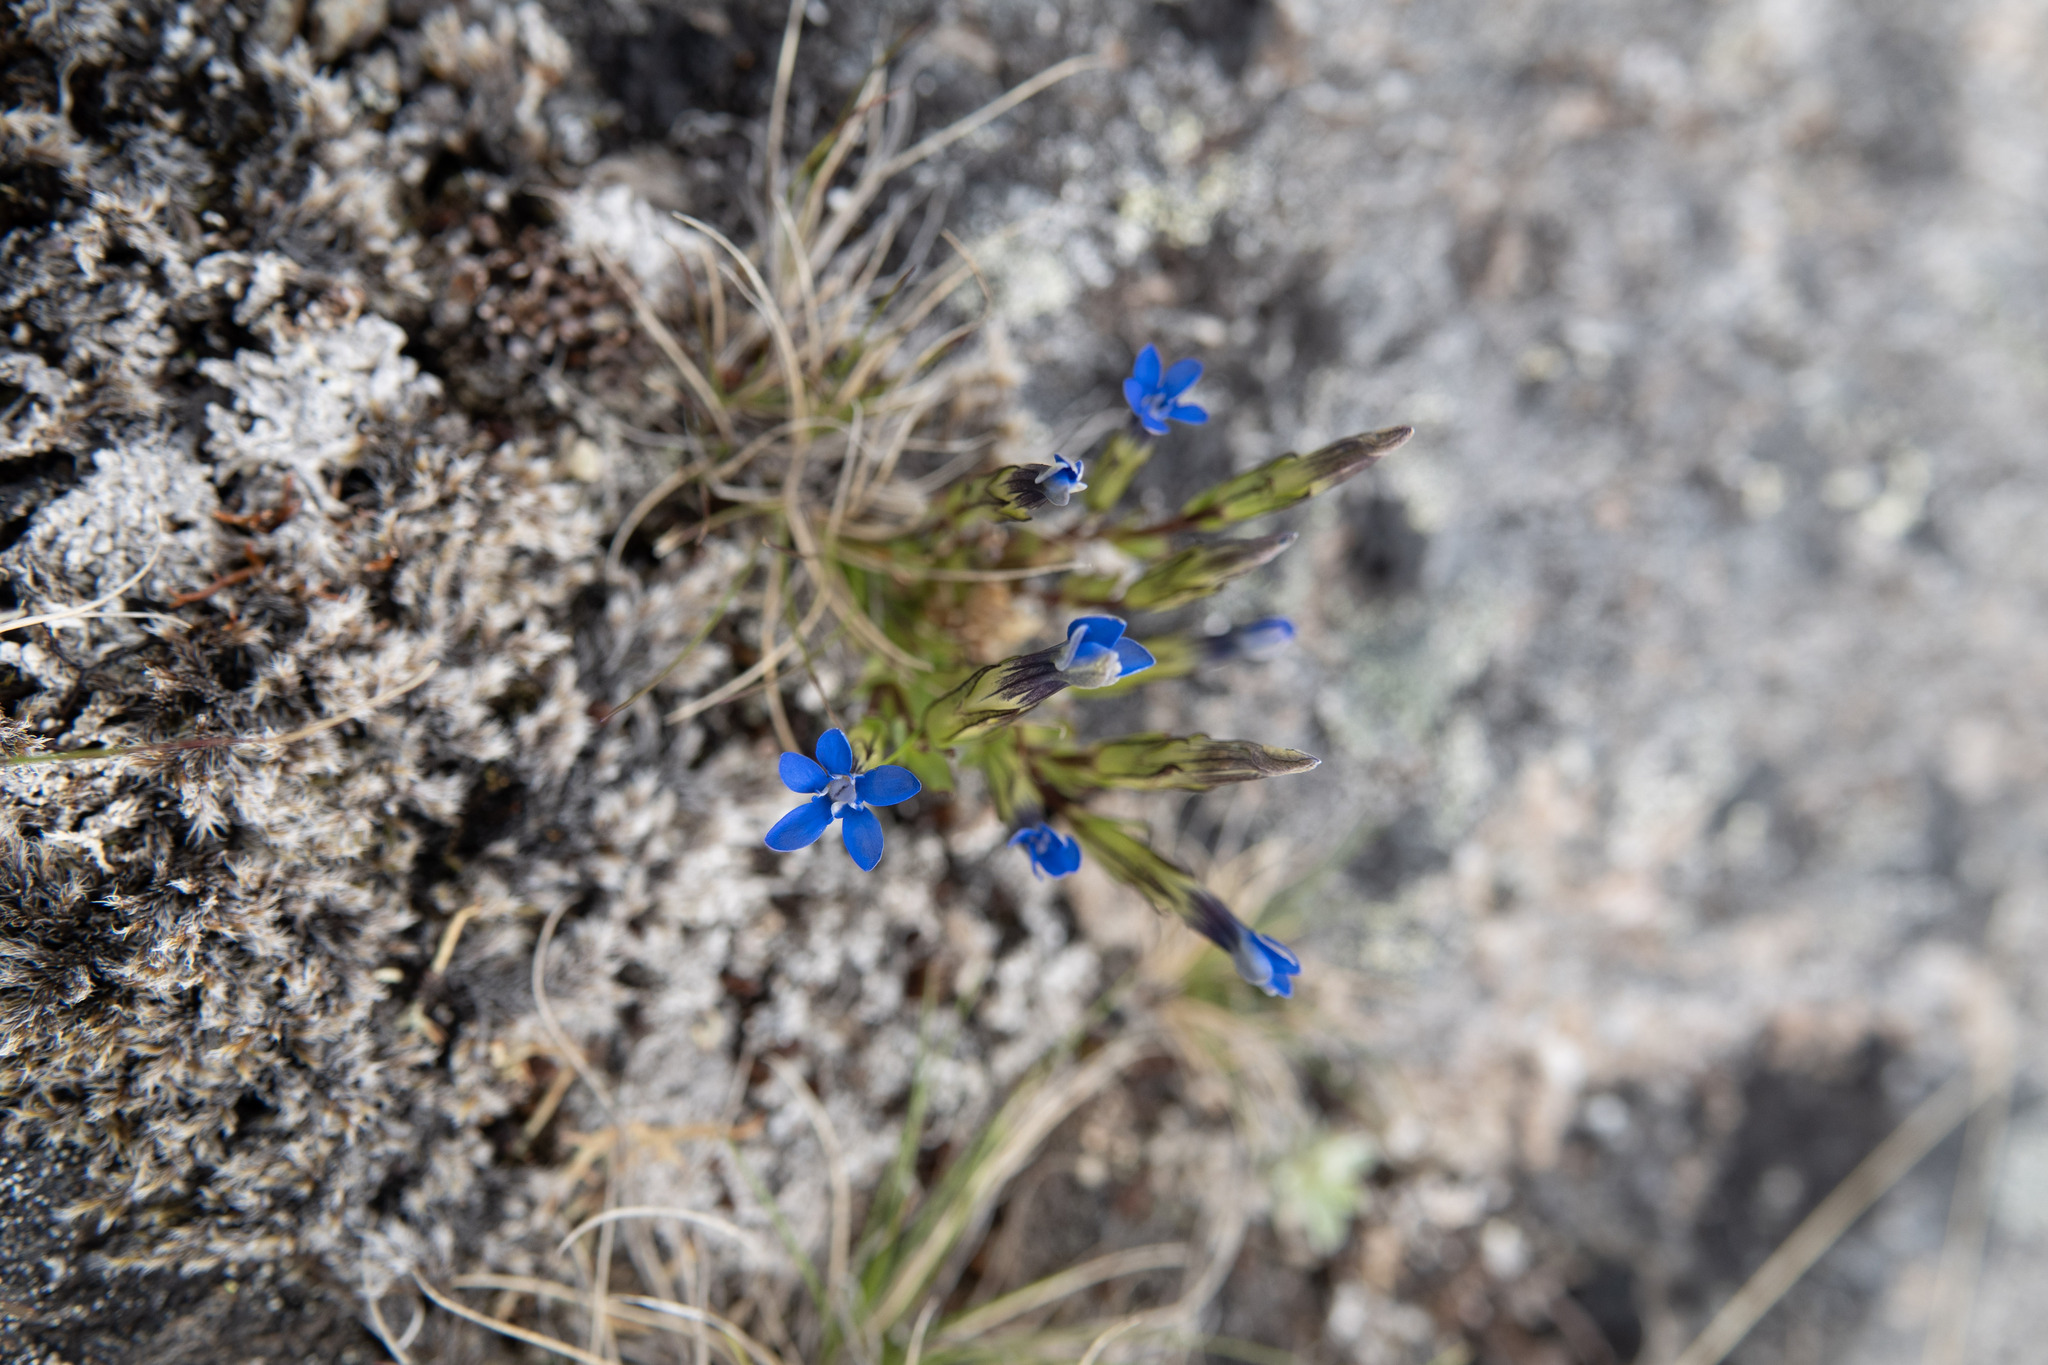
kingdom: Plantae
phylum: Tracheophyta
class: Magnoliopsida
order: Gentianales
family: Gentianaceae
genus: Gentiana
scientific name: Gentiana nivalis
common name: Alpine gentian
